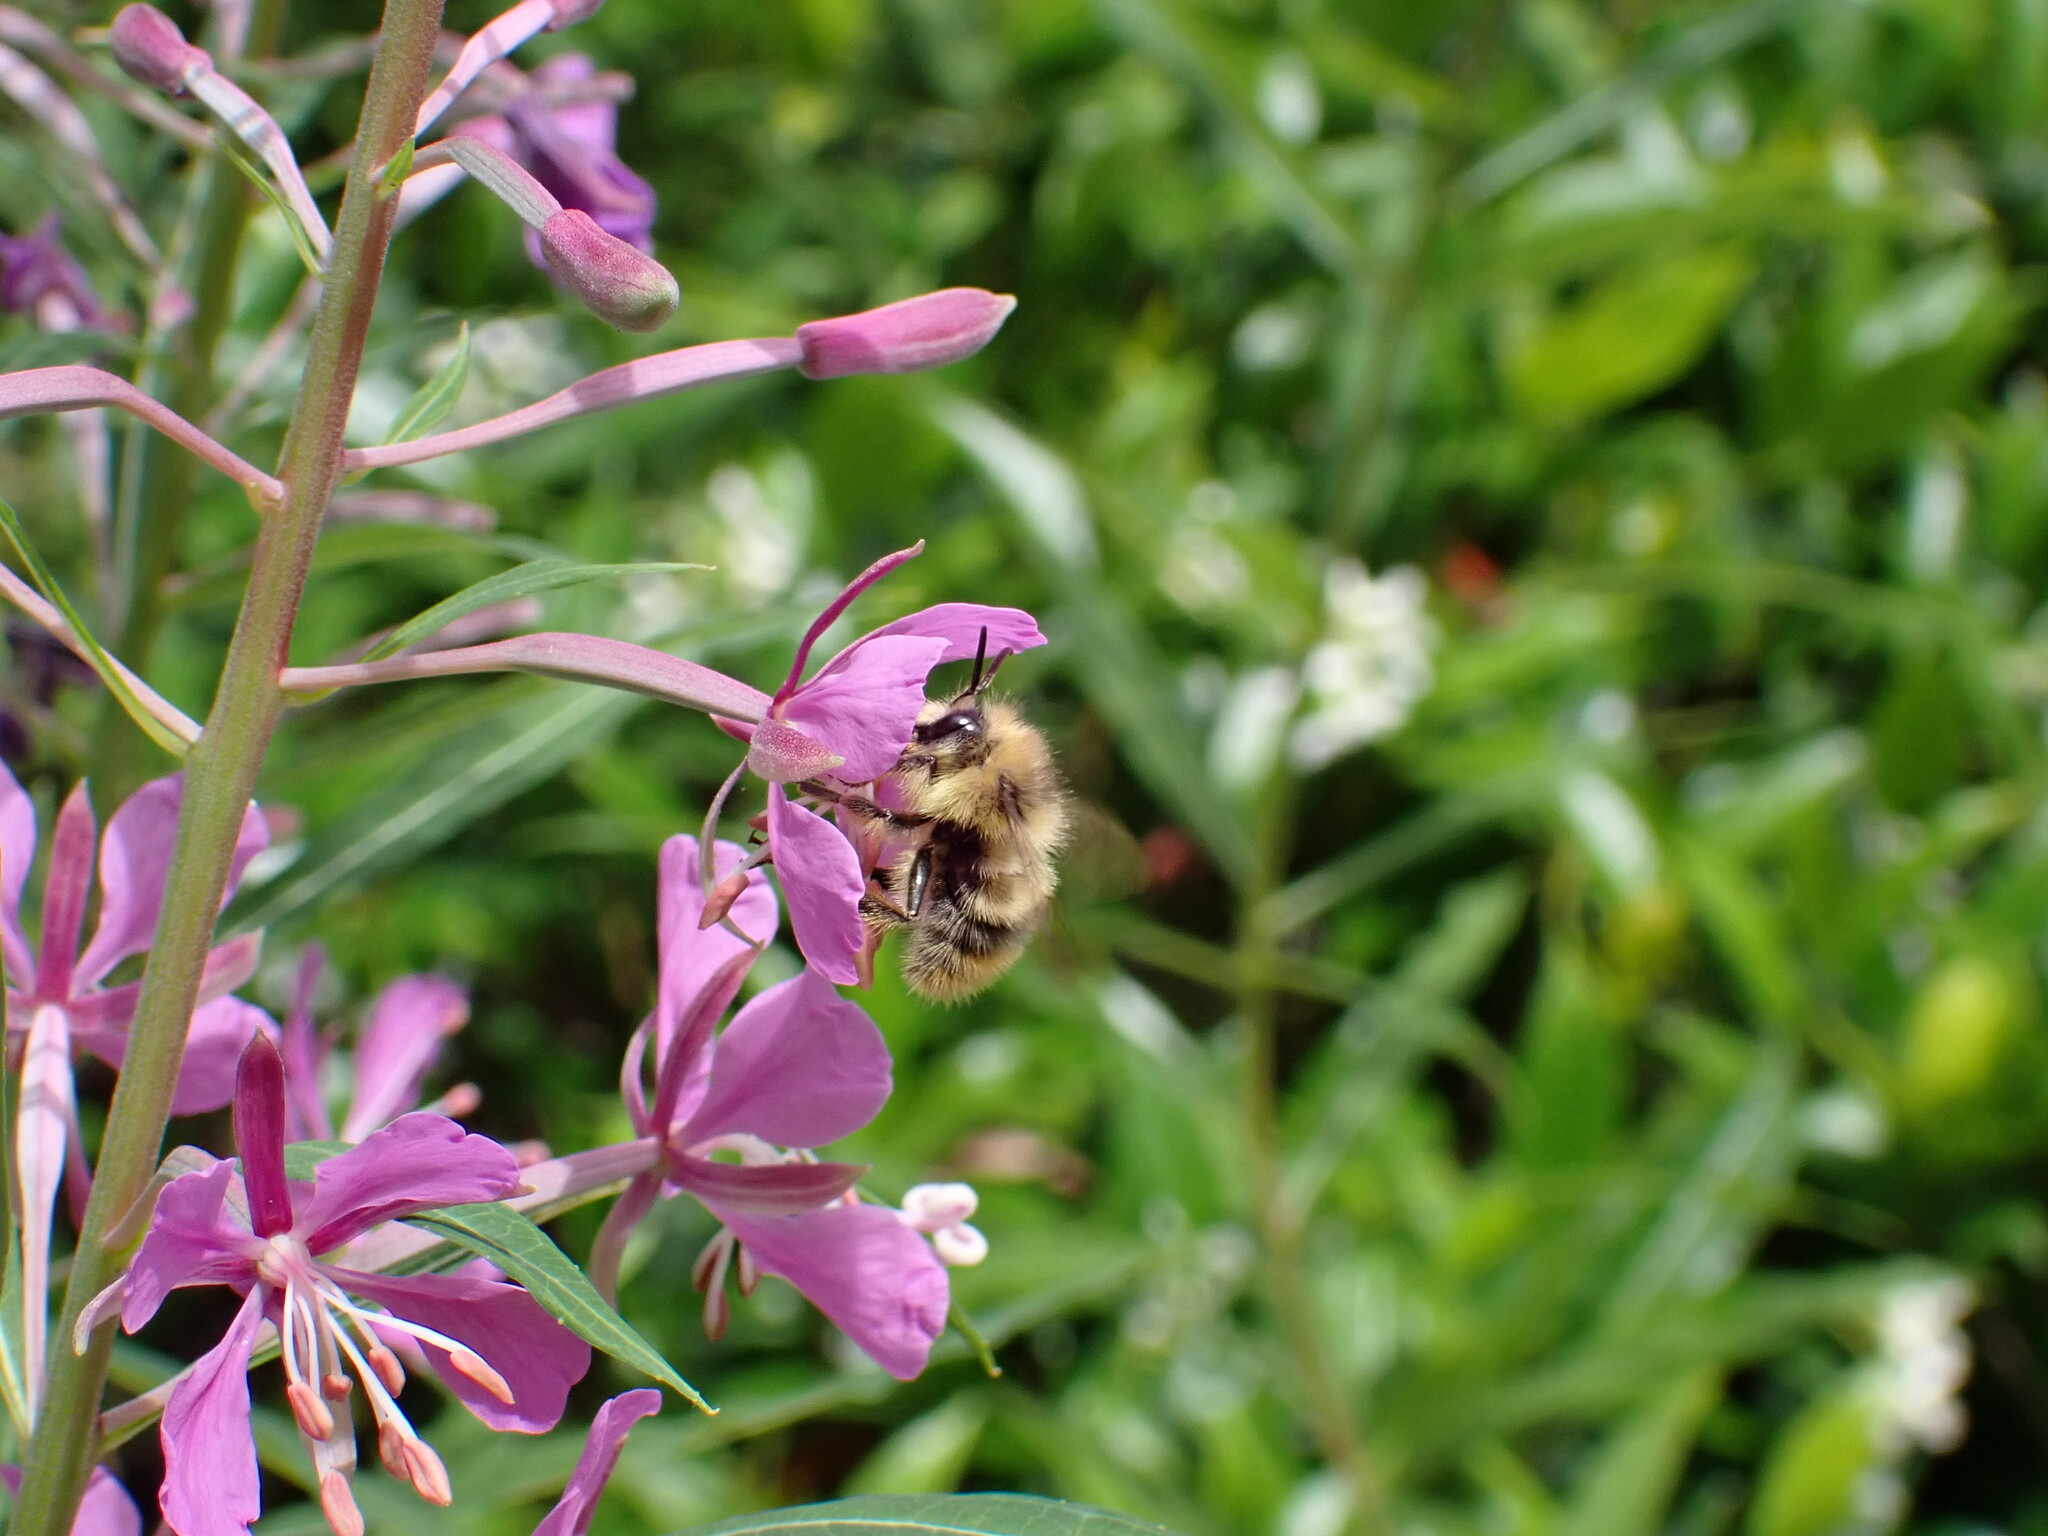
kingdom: Animalia
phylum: Arthropoda
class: Insecta
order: Hymenoptera
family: Apidae
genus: Bombus
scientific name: Bombus mixtus
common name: Fuzzy-horned bumble bee
